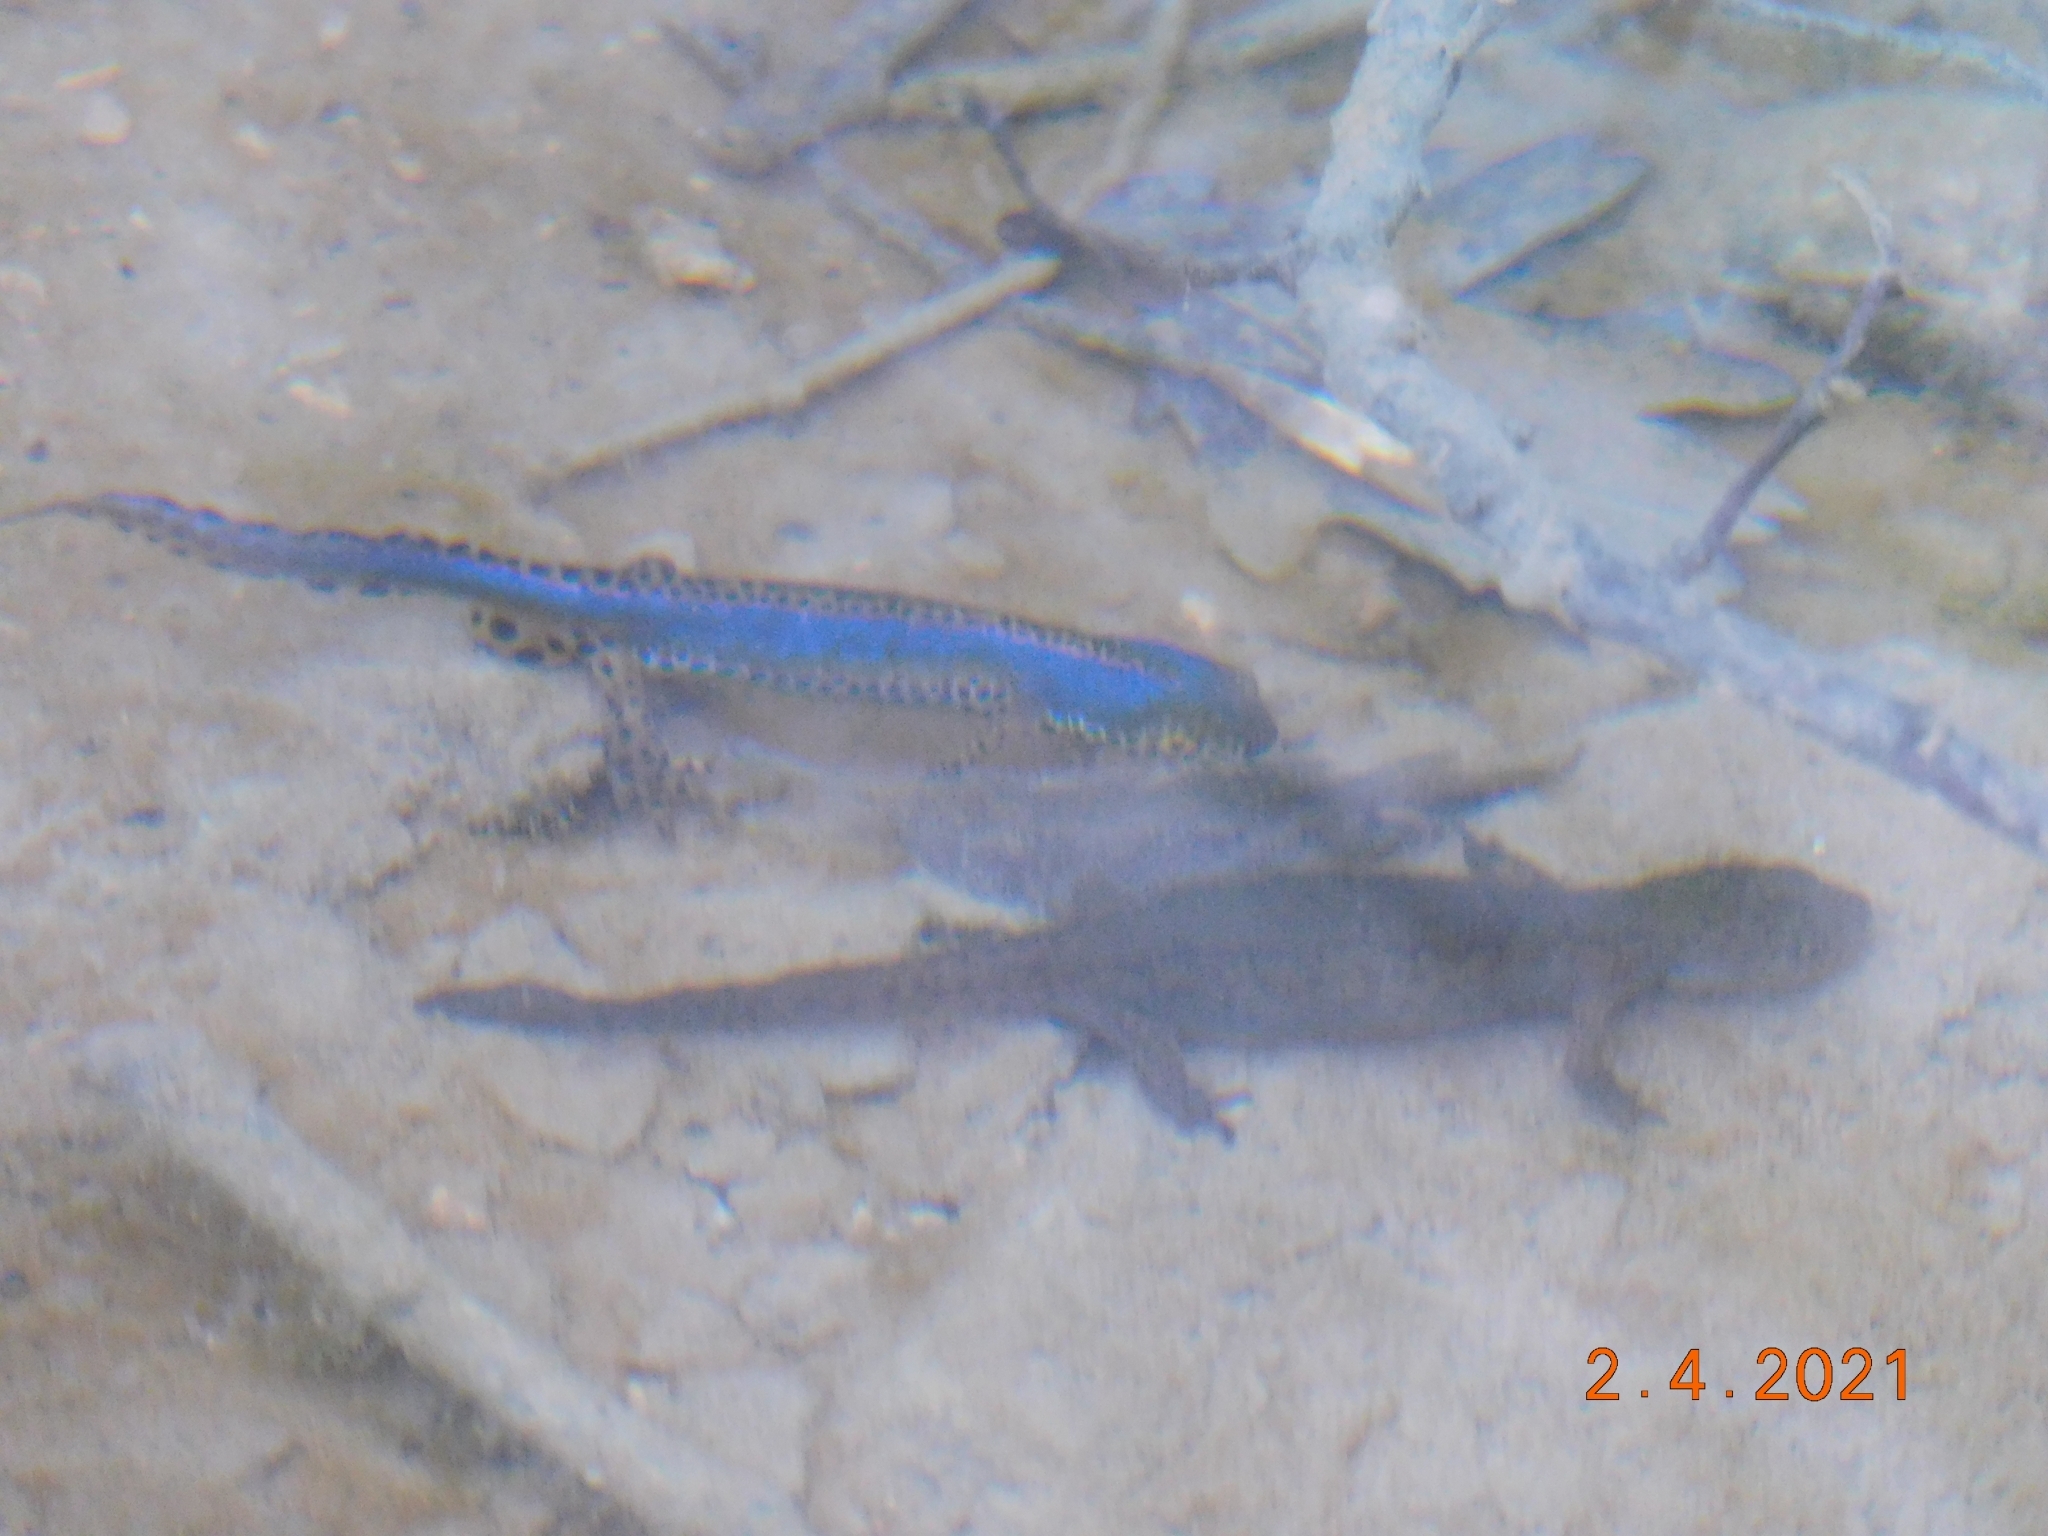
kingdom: Animalia
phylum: Chordata
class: Amphibia
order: Caudata
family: Salamandridae
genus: Ichthyosaura
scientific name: Ichthyosaura alpestris
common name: Alpine newt
